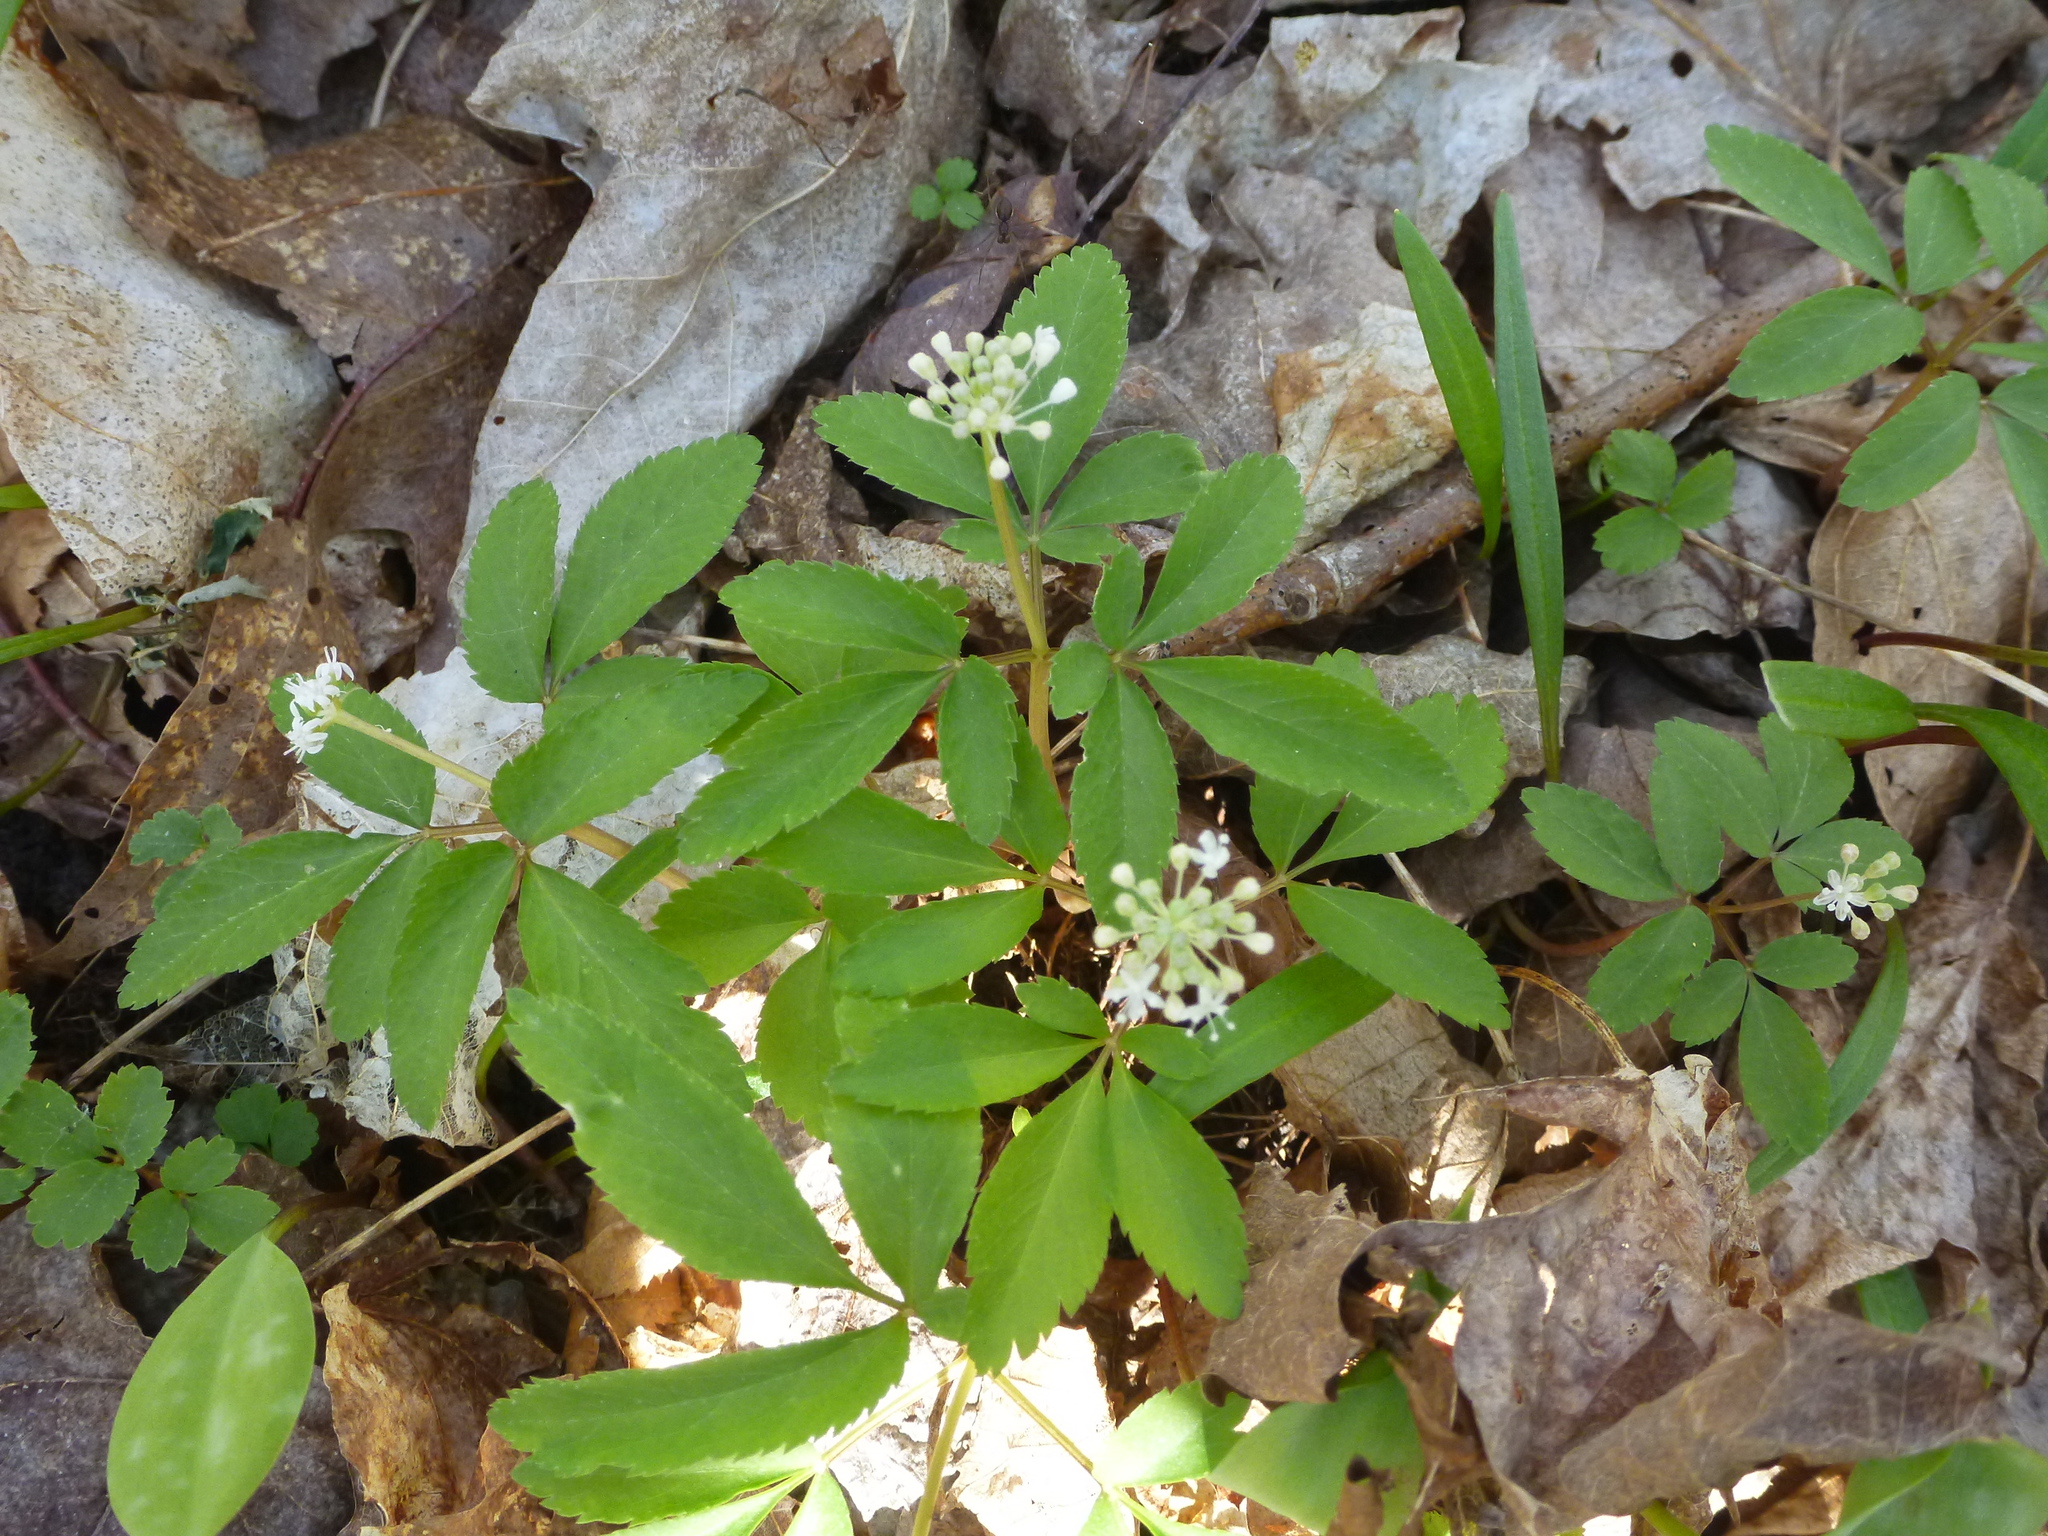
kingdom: Plantae
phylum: Tracheophyta
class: Magnoliopsida
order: Apiales
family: Araliaceae
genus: Panax
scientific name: Panax trifolius
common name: Dwarf ginseng
